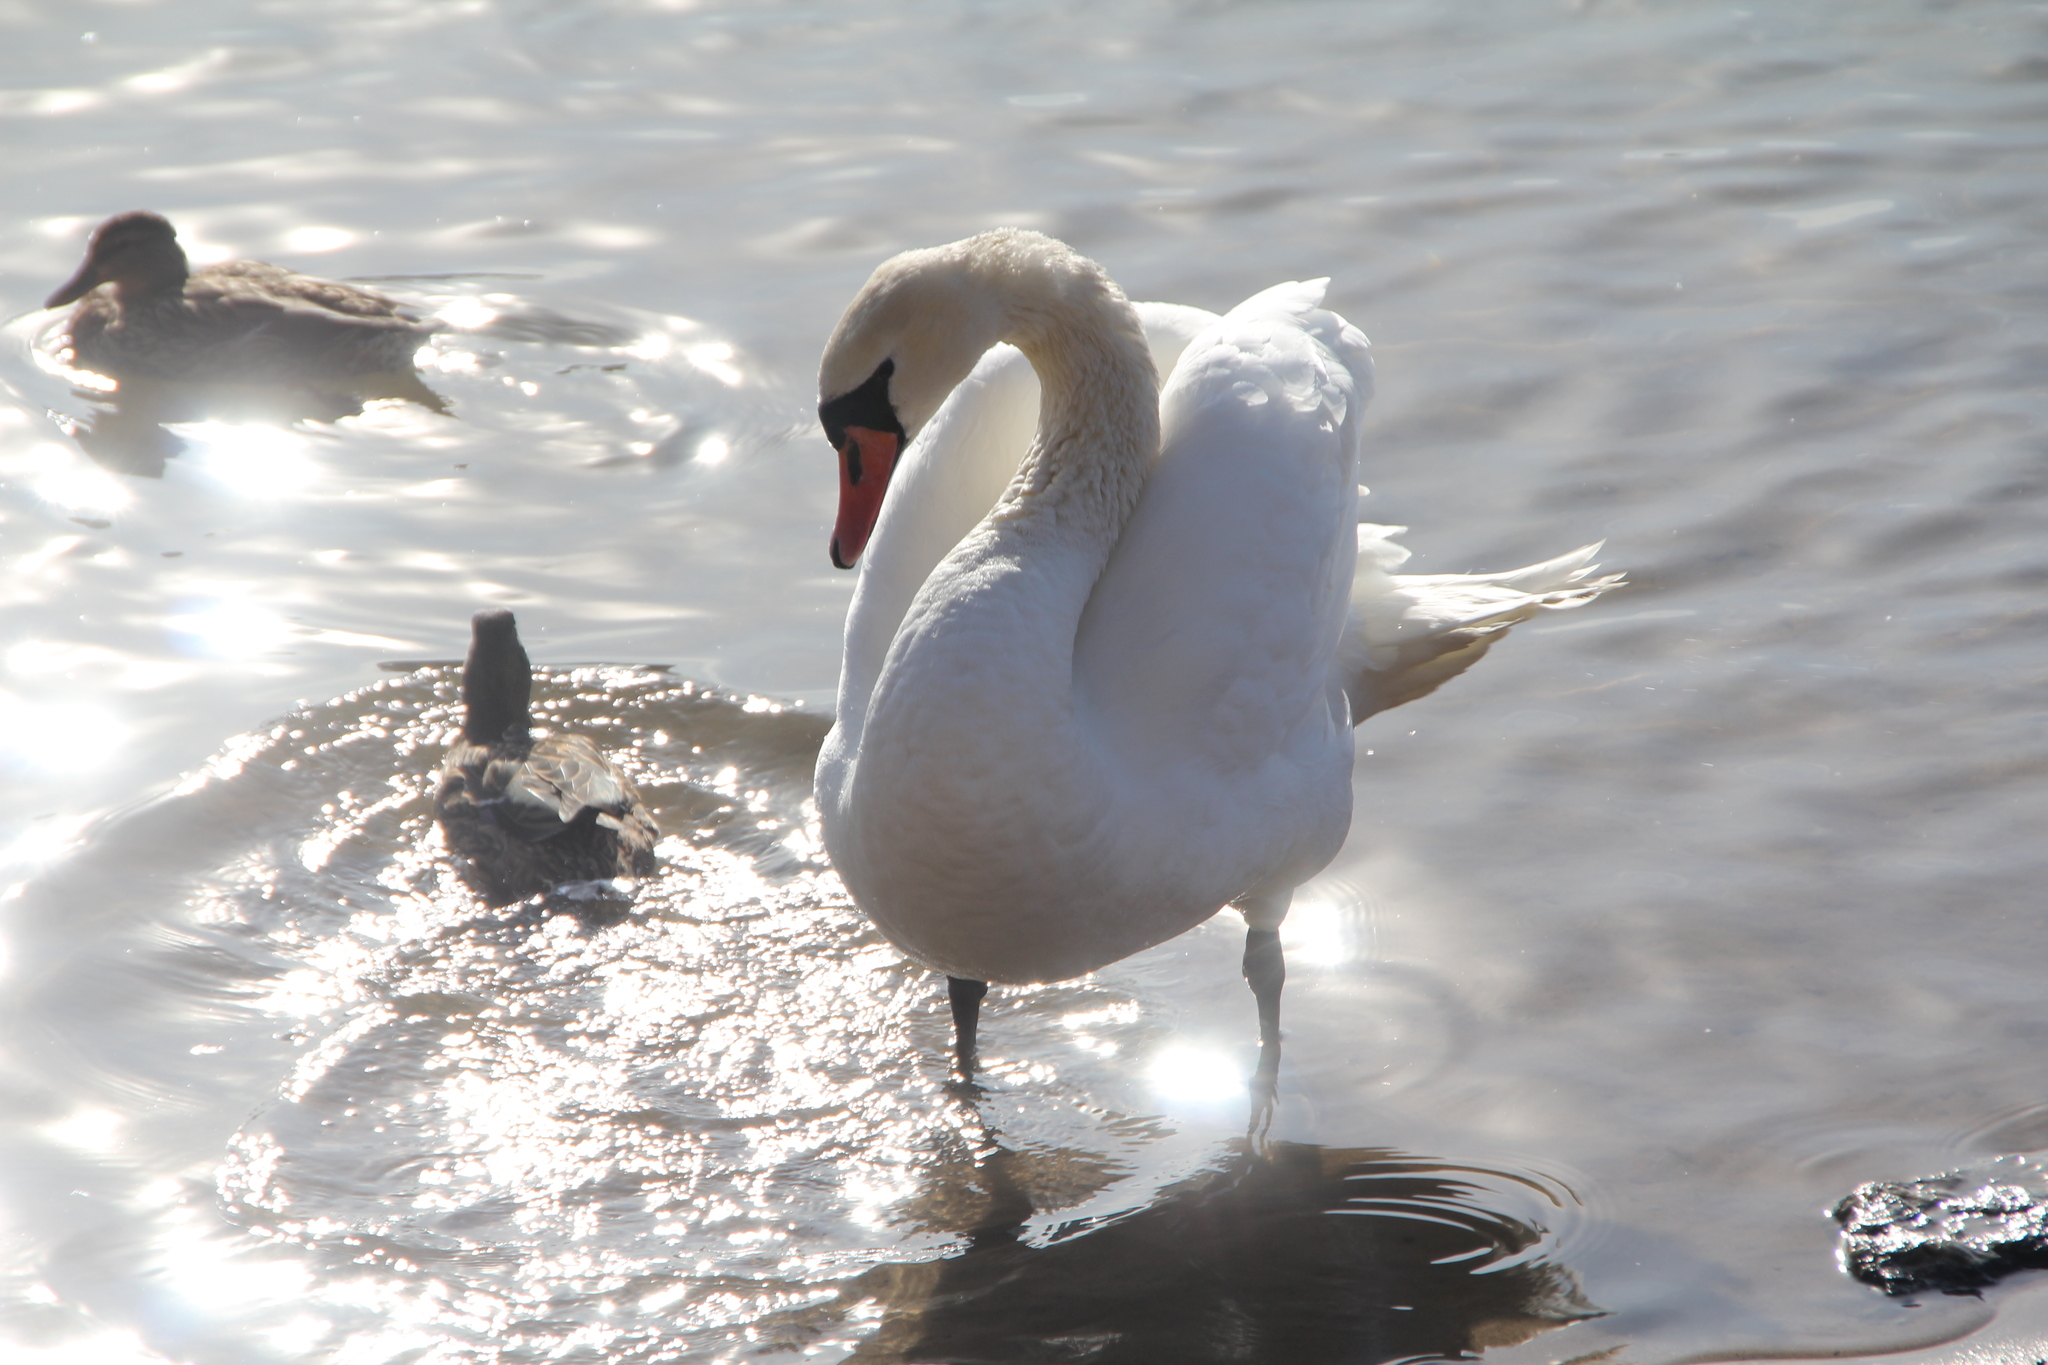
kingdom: Animalia
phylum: Chordata
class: Aves
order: Anseriformes
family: Anatidae
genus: Cygnus
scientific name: Cygnus olor
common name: Mute swan
